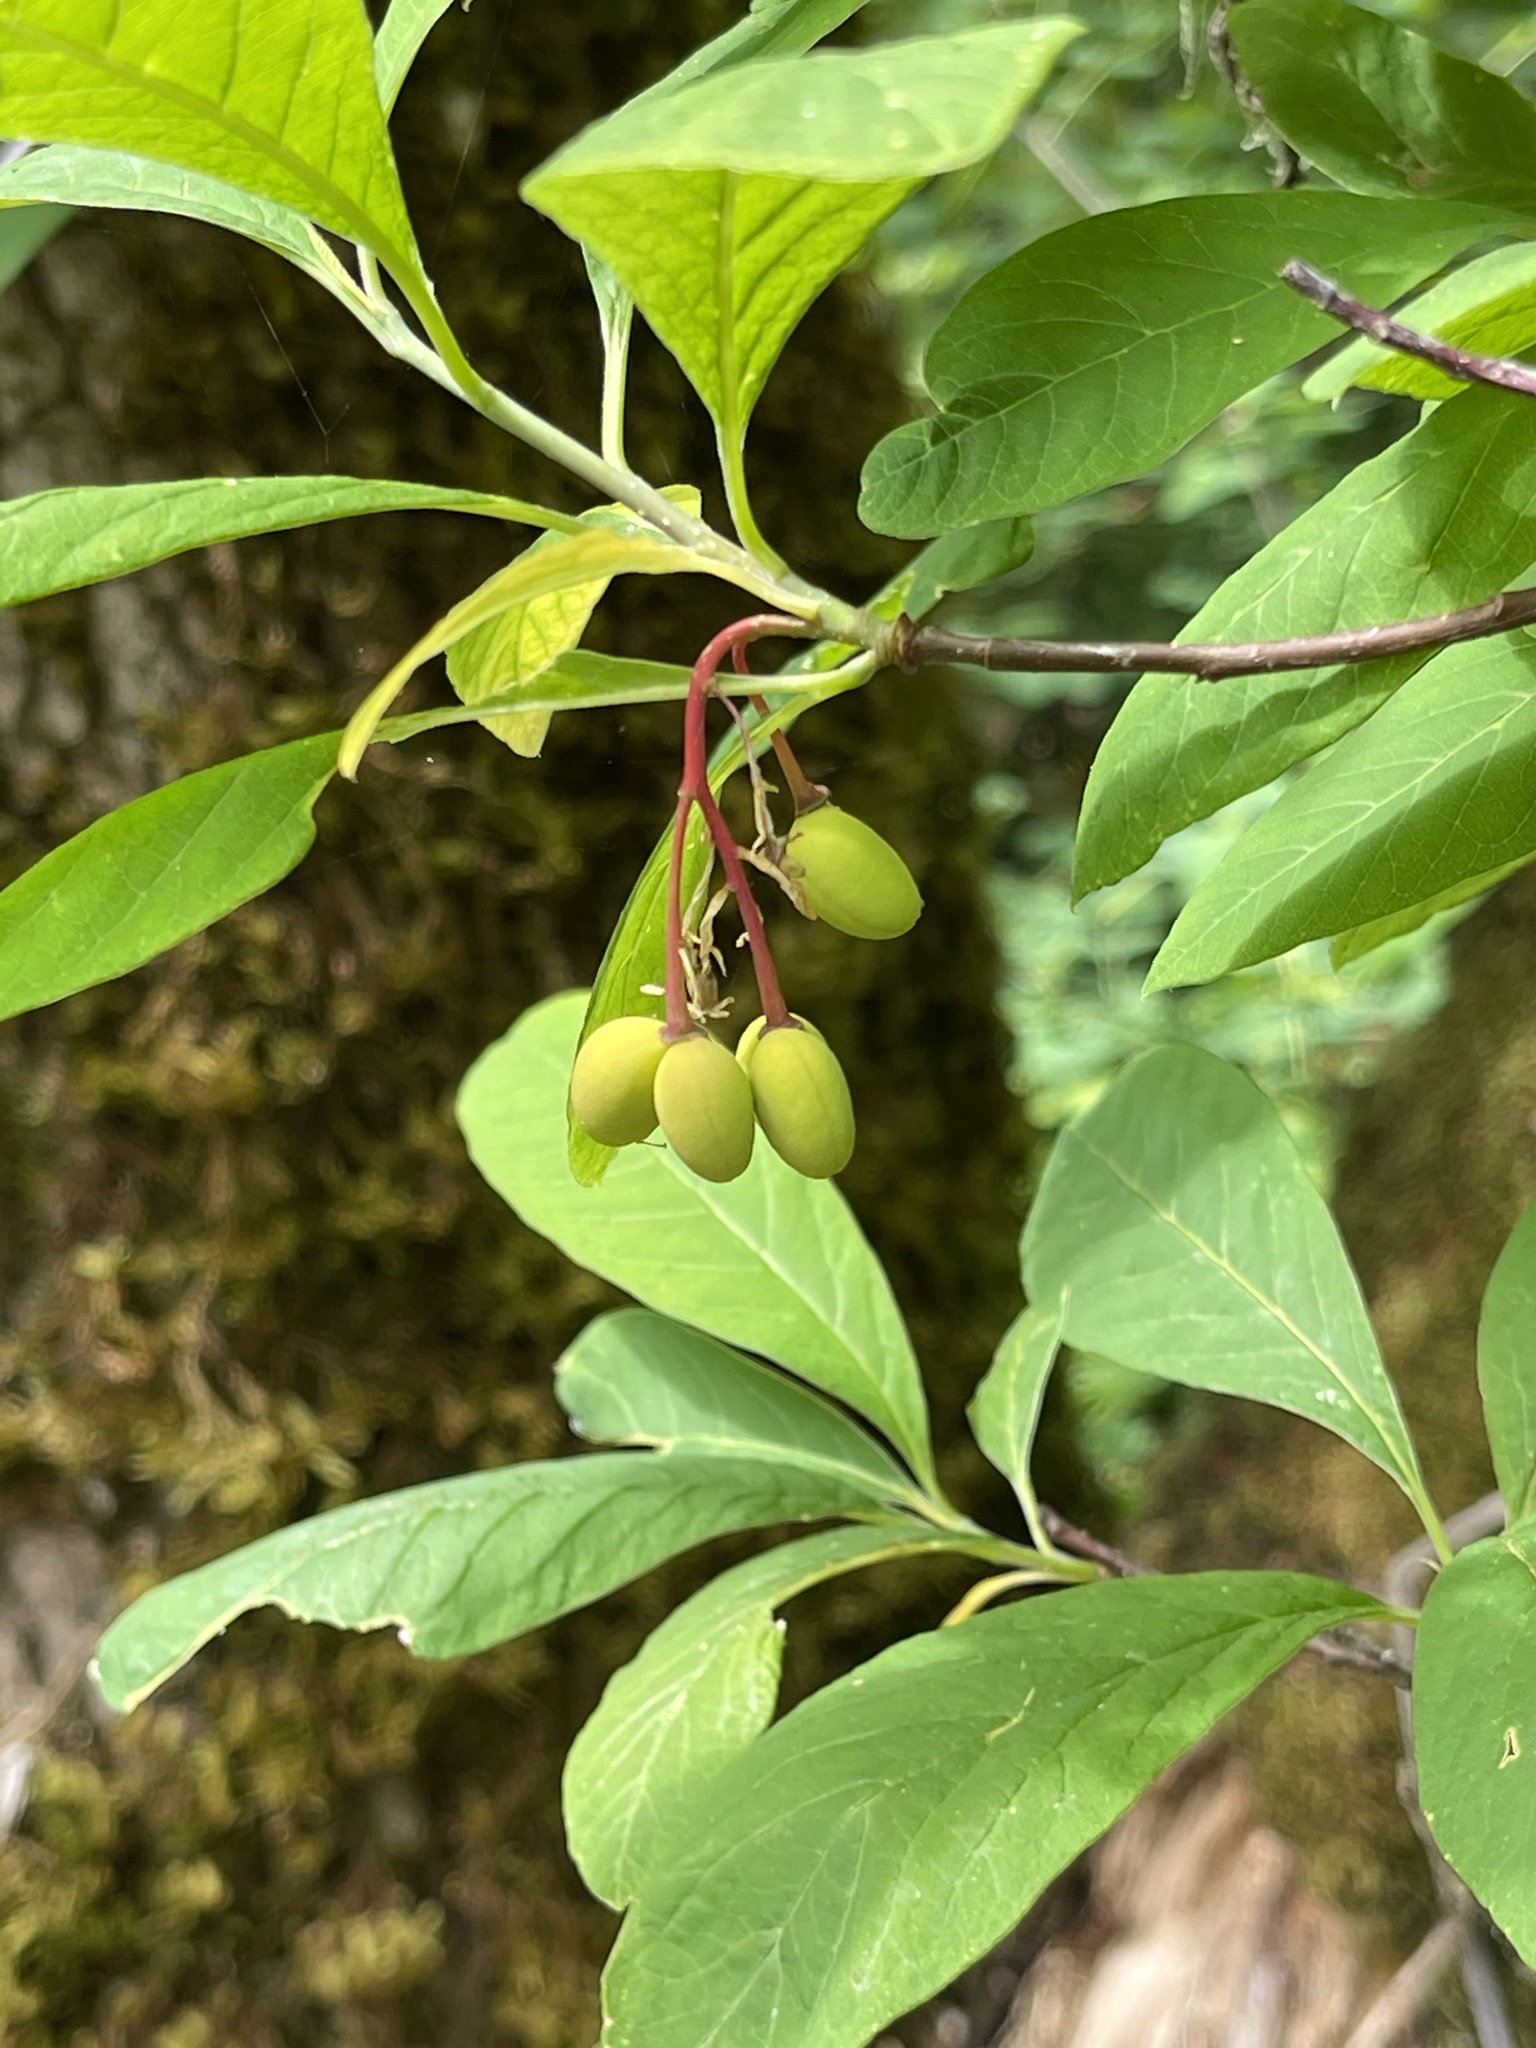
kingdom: Plantae
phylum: Tracheophyta
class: Magnoliopsida
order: Rosales
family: Rosaceae
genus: Oemleria
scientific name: Oemleria cerasiformis
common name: Osoberry
